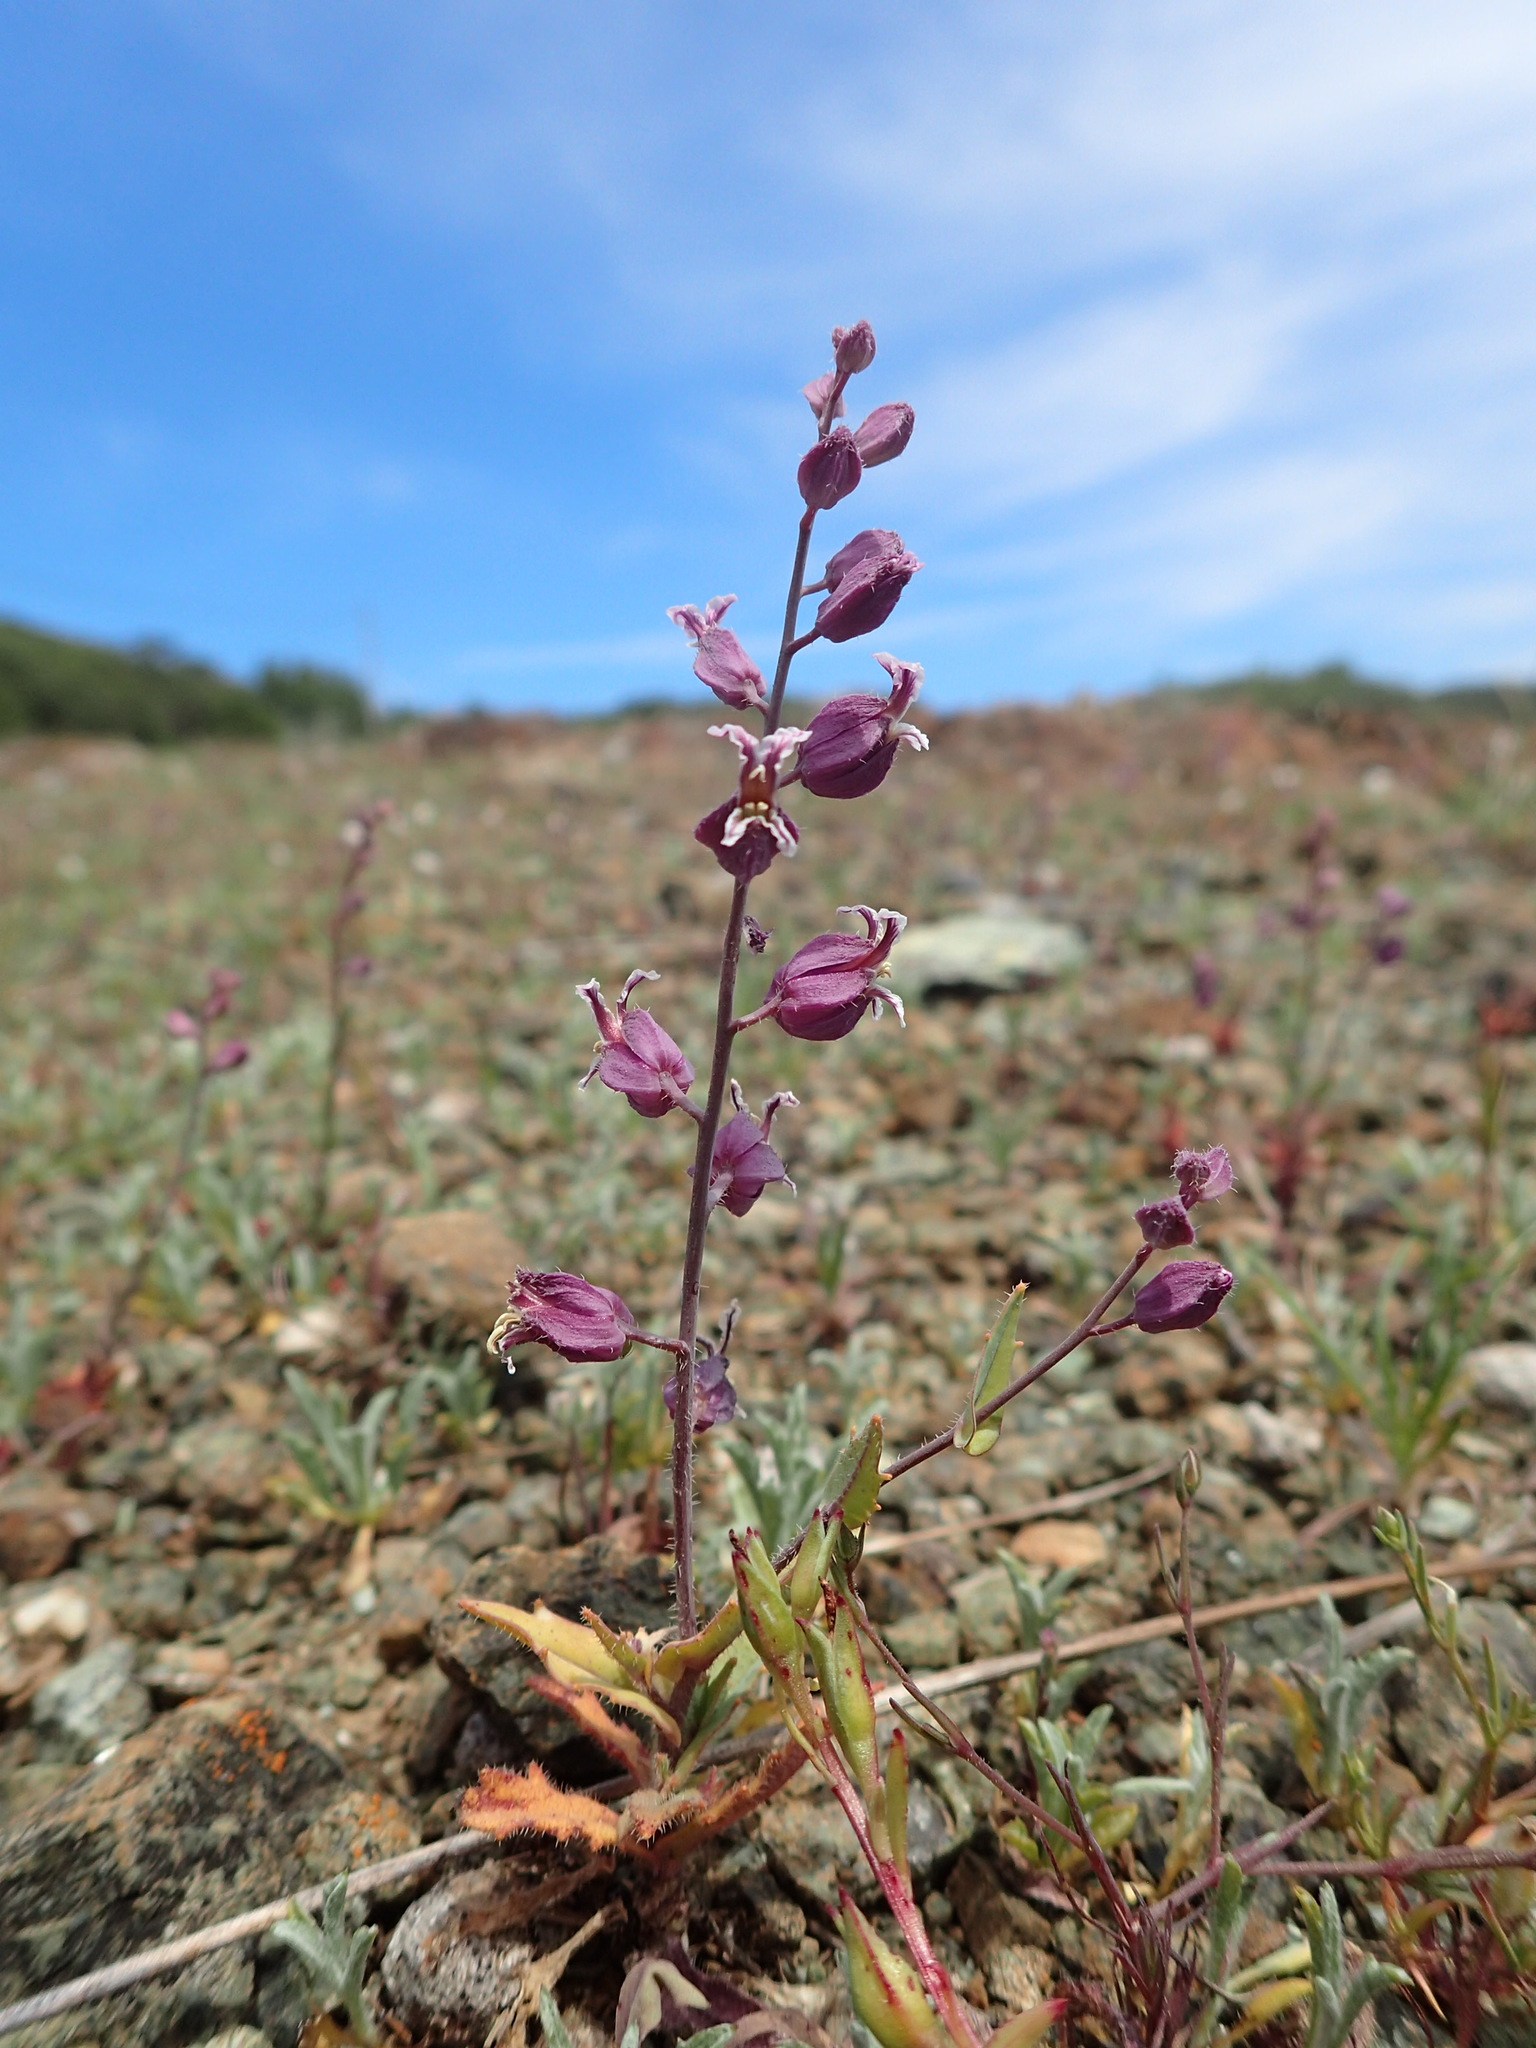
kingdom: Plantae
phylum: Tracheophyta
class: Magnoliopsida
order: Brassicales
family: Brassicaceae
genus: Streptanthus
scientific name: Streptanthus glandulosus
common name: Jewel-flower
